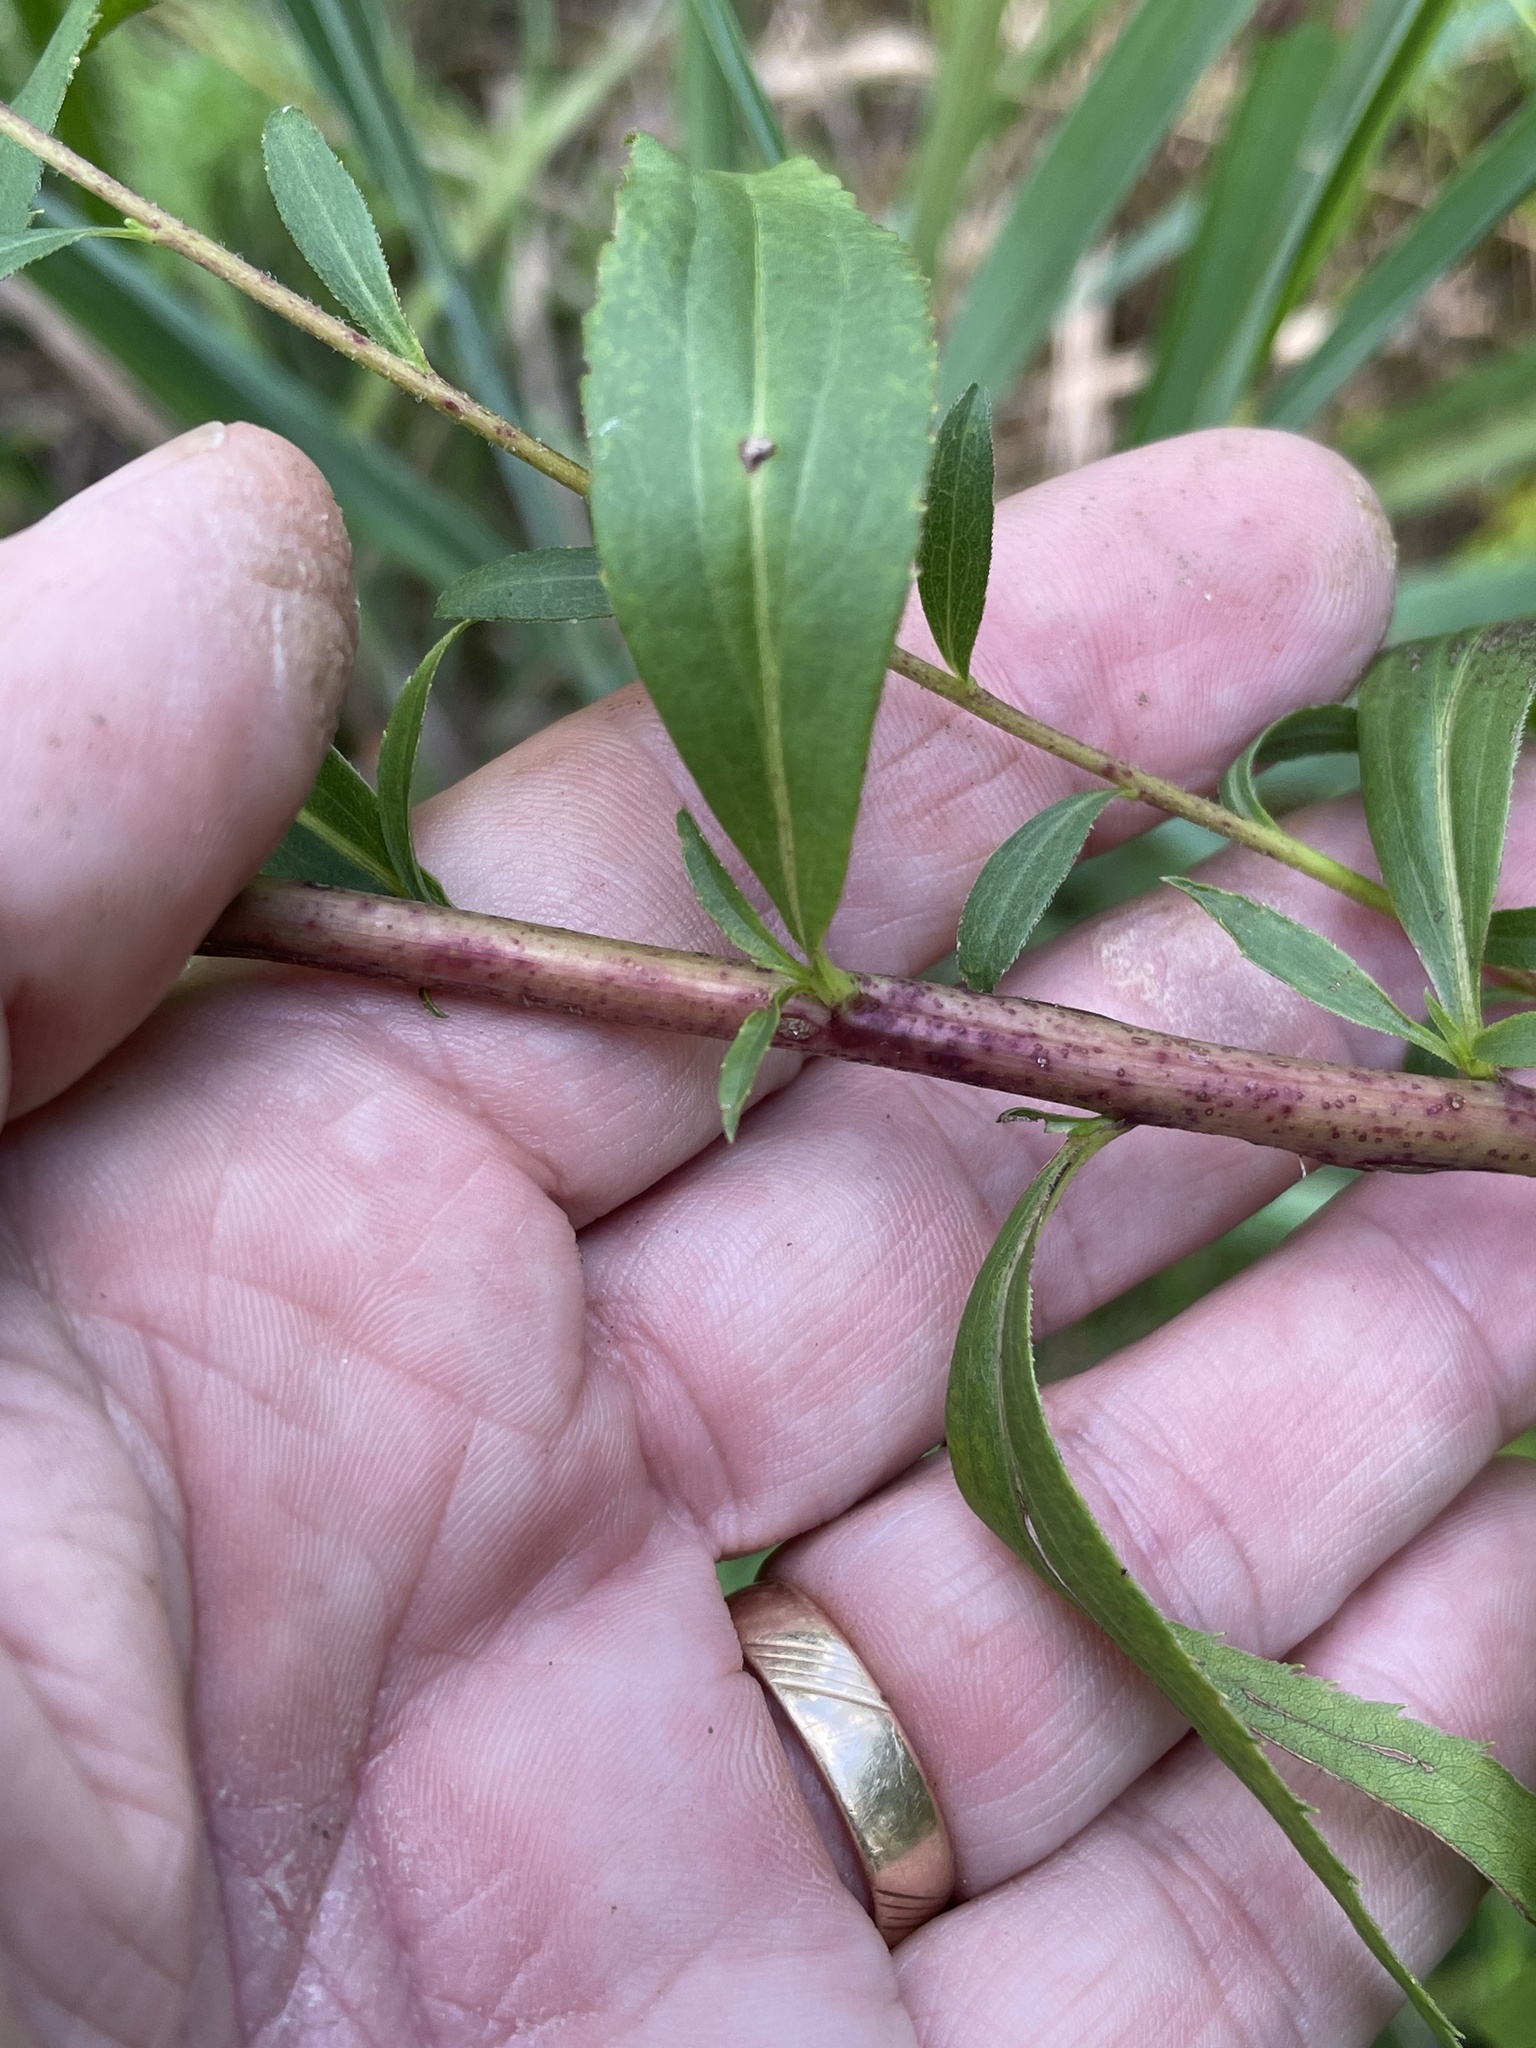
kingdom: Plantae
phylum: Tracheophyta
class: Magnoliopsida
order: Asterales
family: Asteraceae
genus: Solidago
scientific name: Solidago altissima
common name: Late goldenrod
